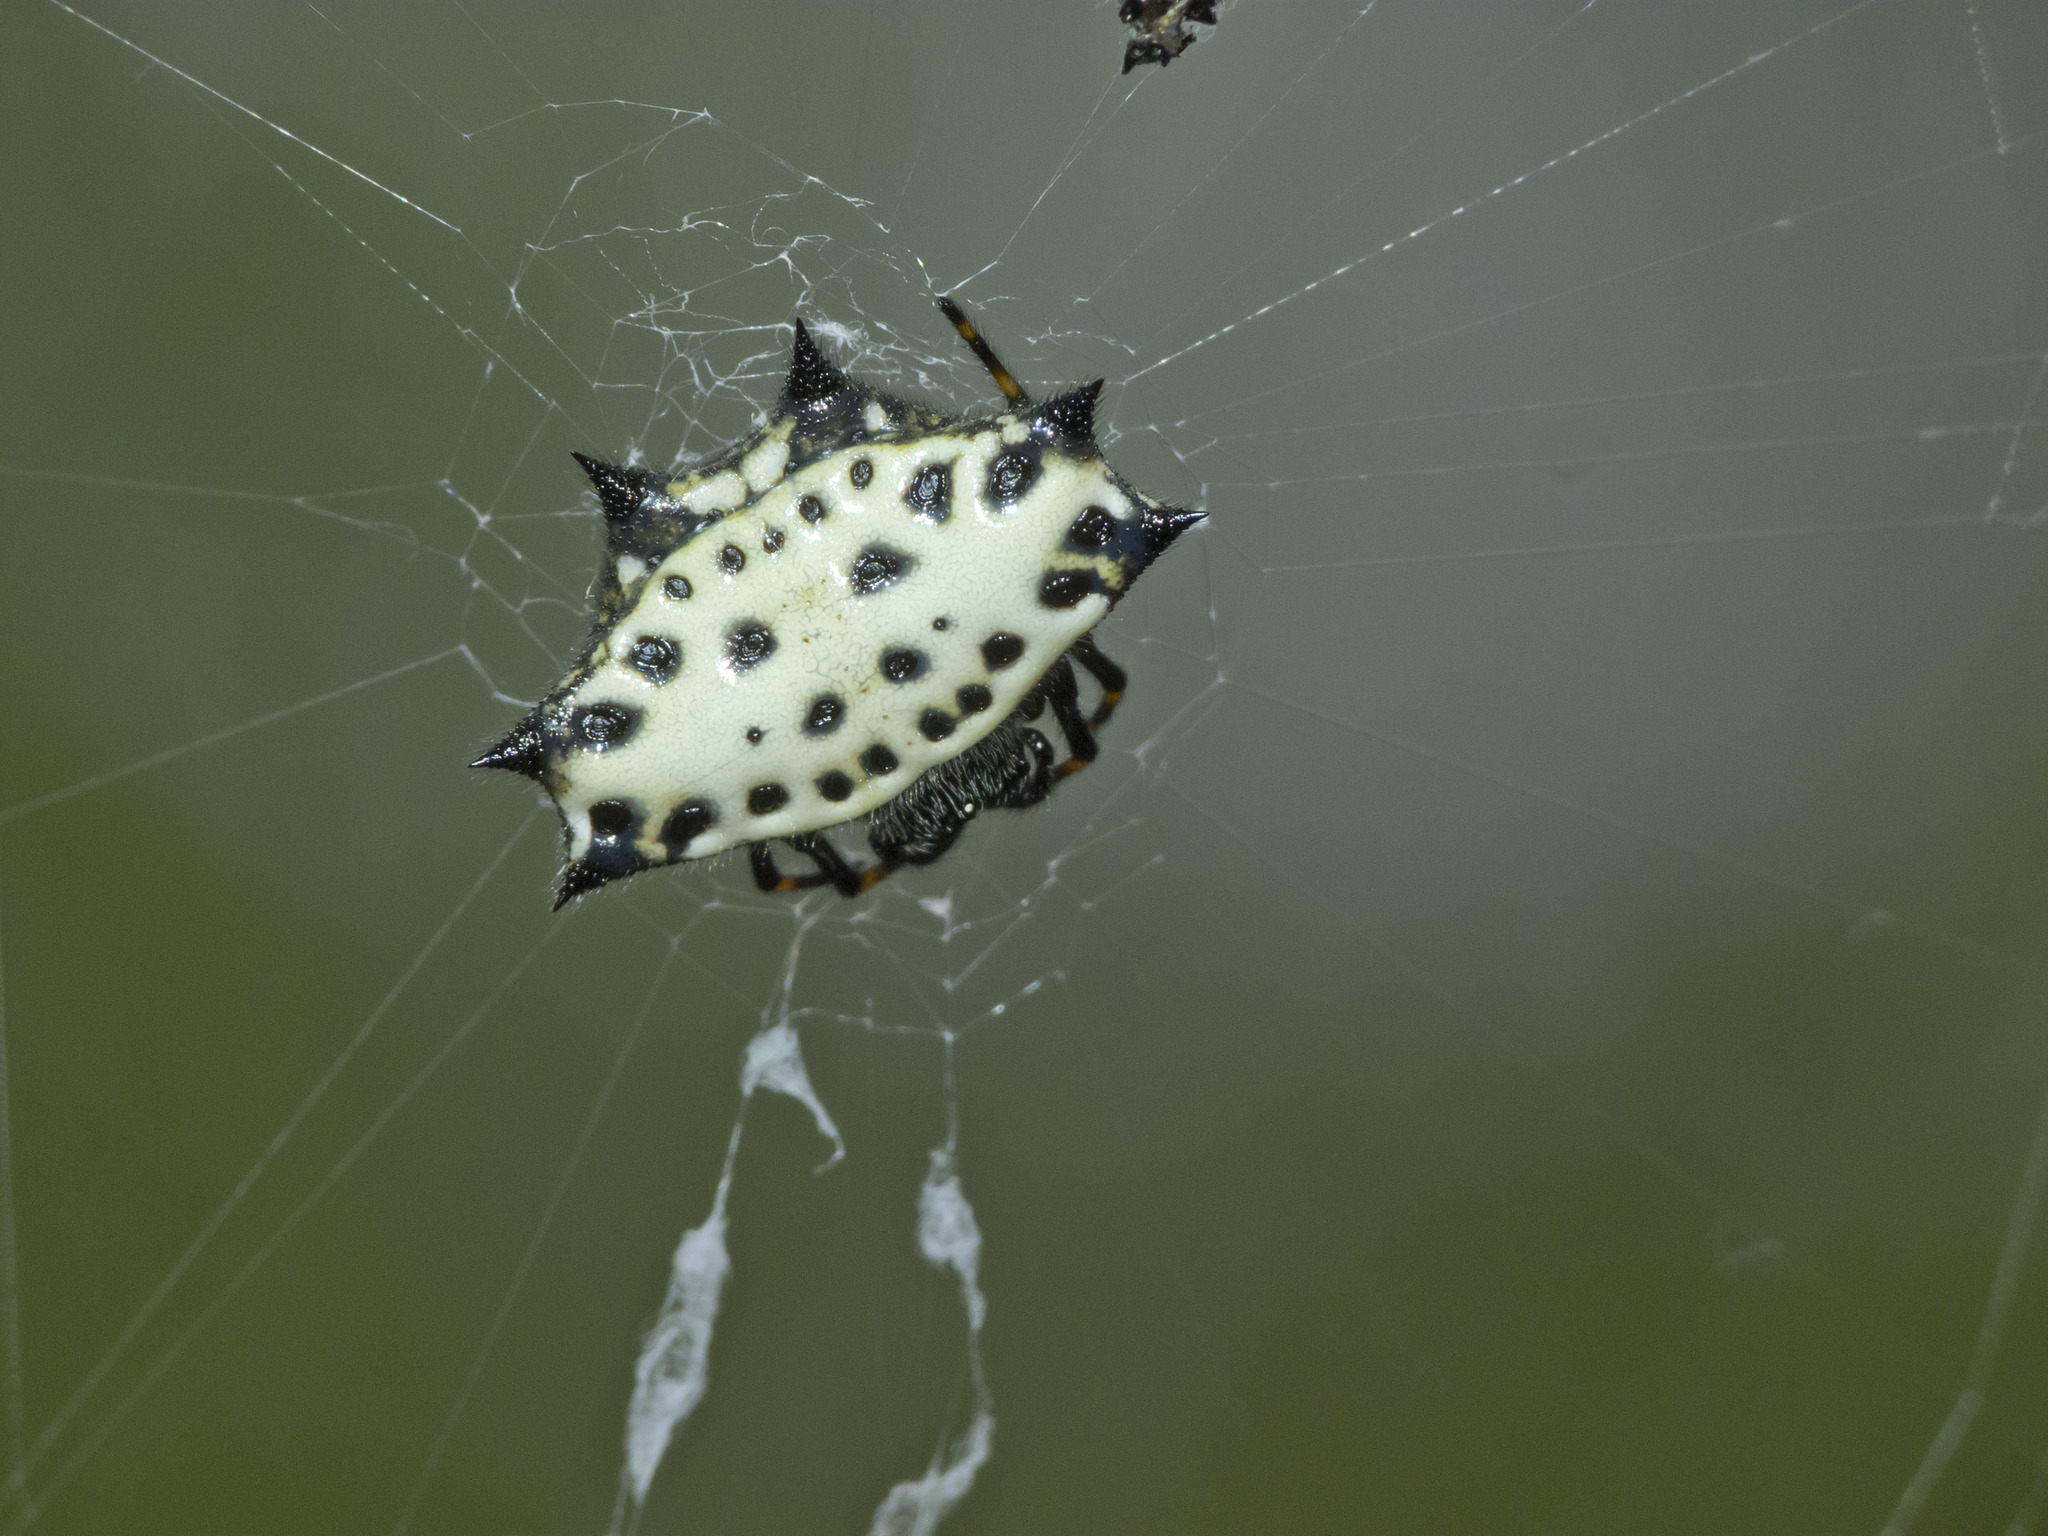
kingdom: Animalia
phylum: Arthropoda
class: Arachnida
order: Araneae
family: Araneidae
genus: Gasteracantha
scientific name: Gasteracantha cancriformis
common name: Orb weavers
